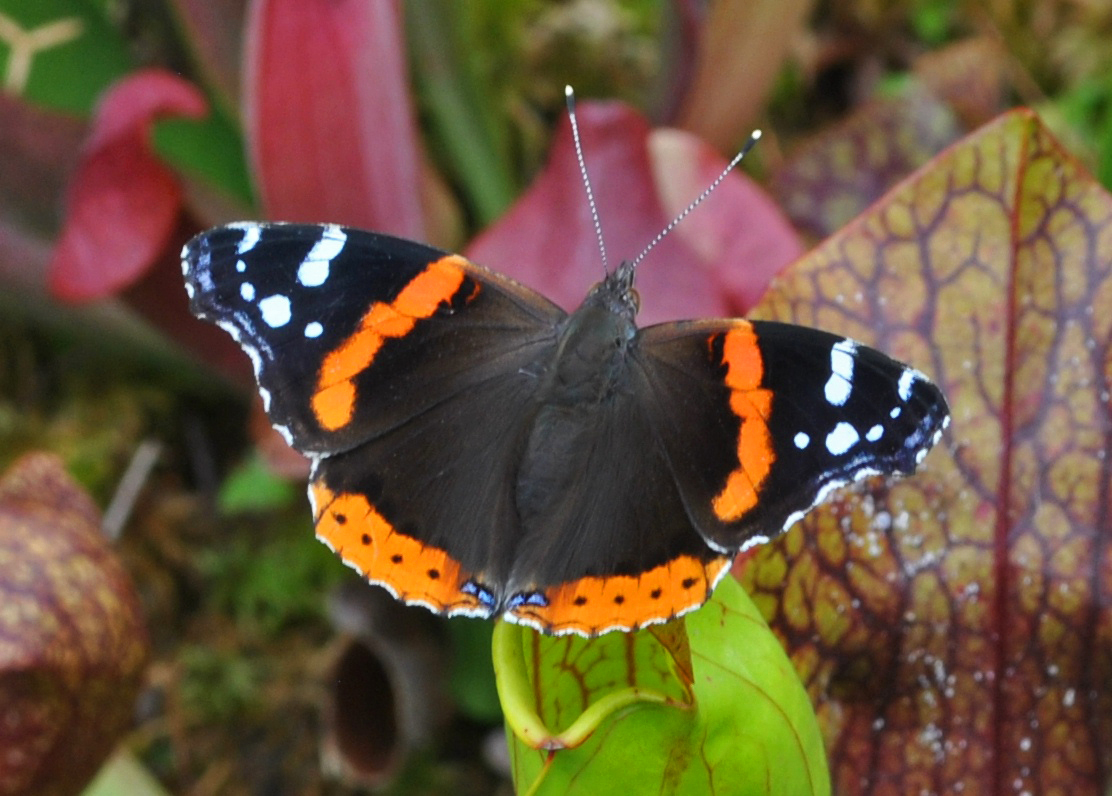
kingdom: Animalia
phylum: Arthropoda
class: Insecta
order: Lepidoptera
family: Nymphalidae
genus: Vanessa
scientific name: Vanessa atalanta
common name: Red admiral
